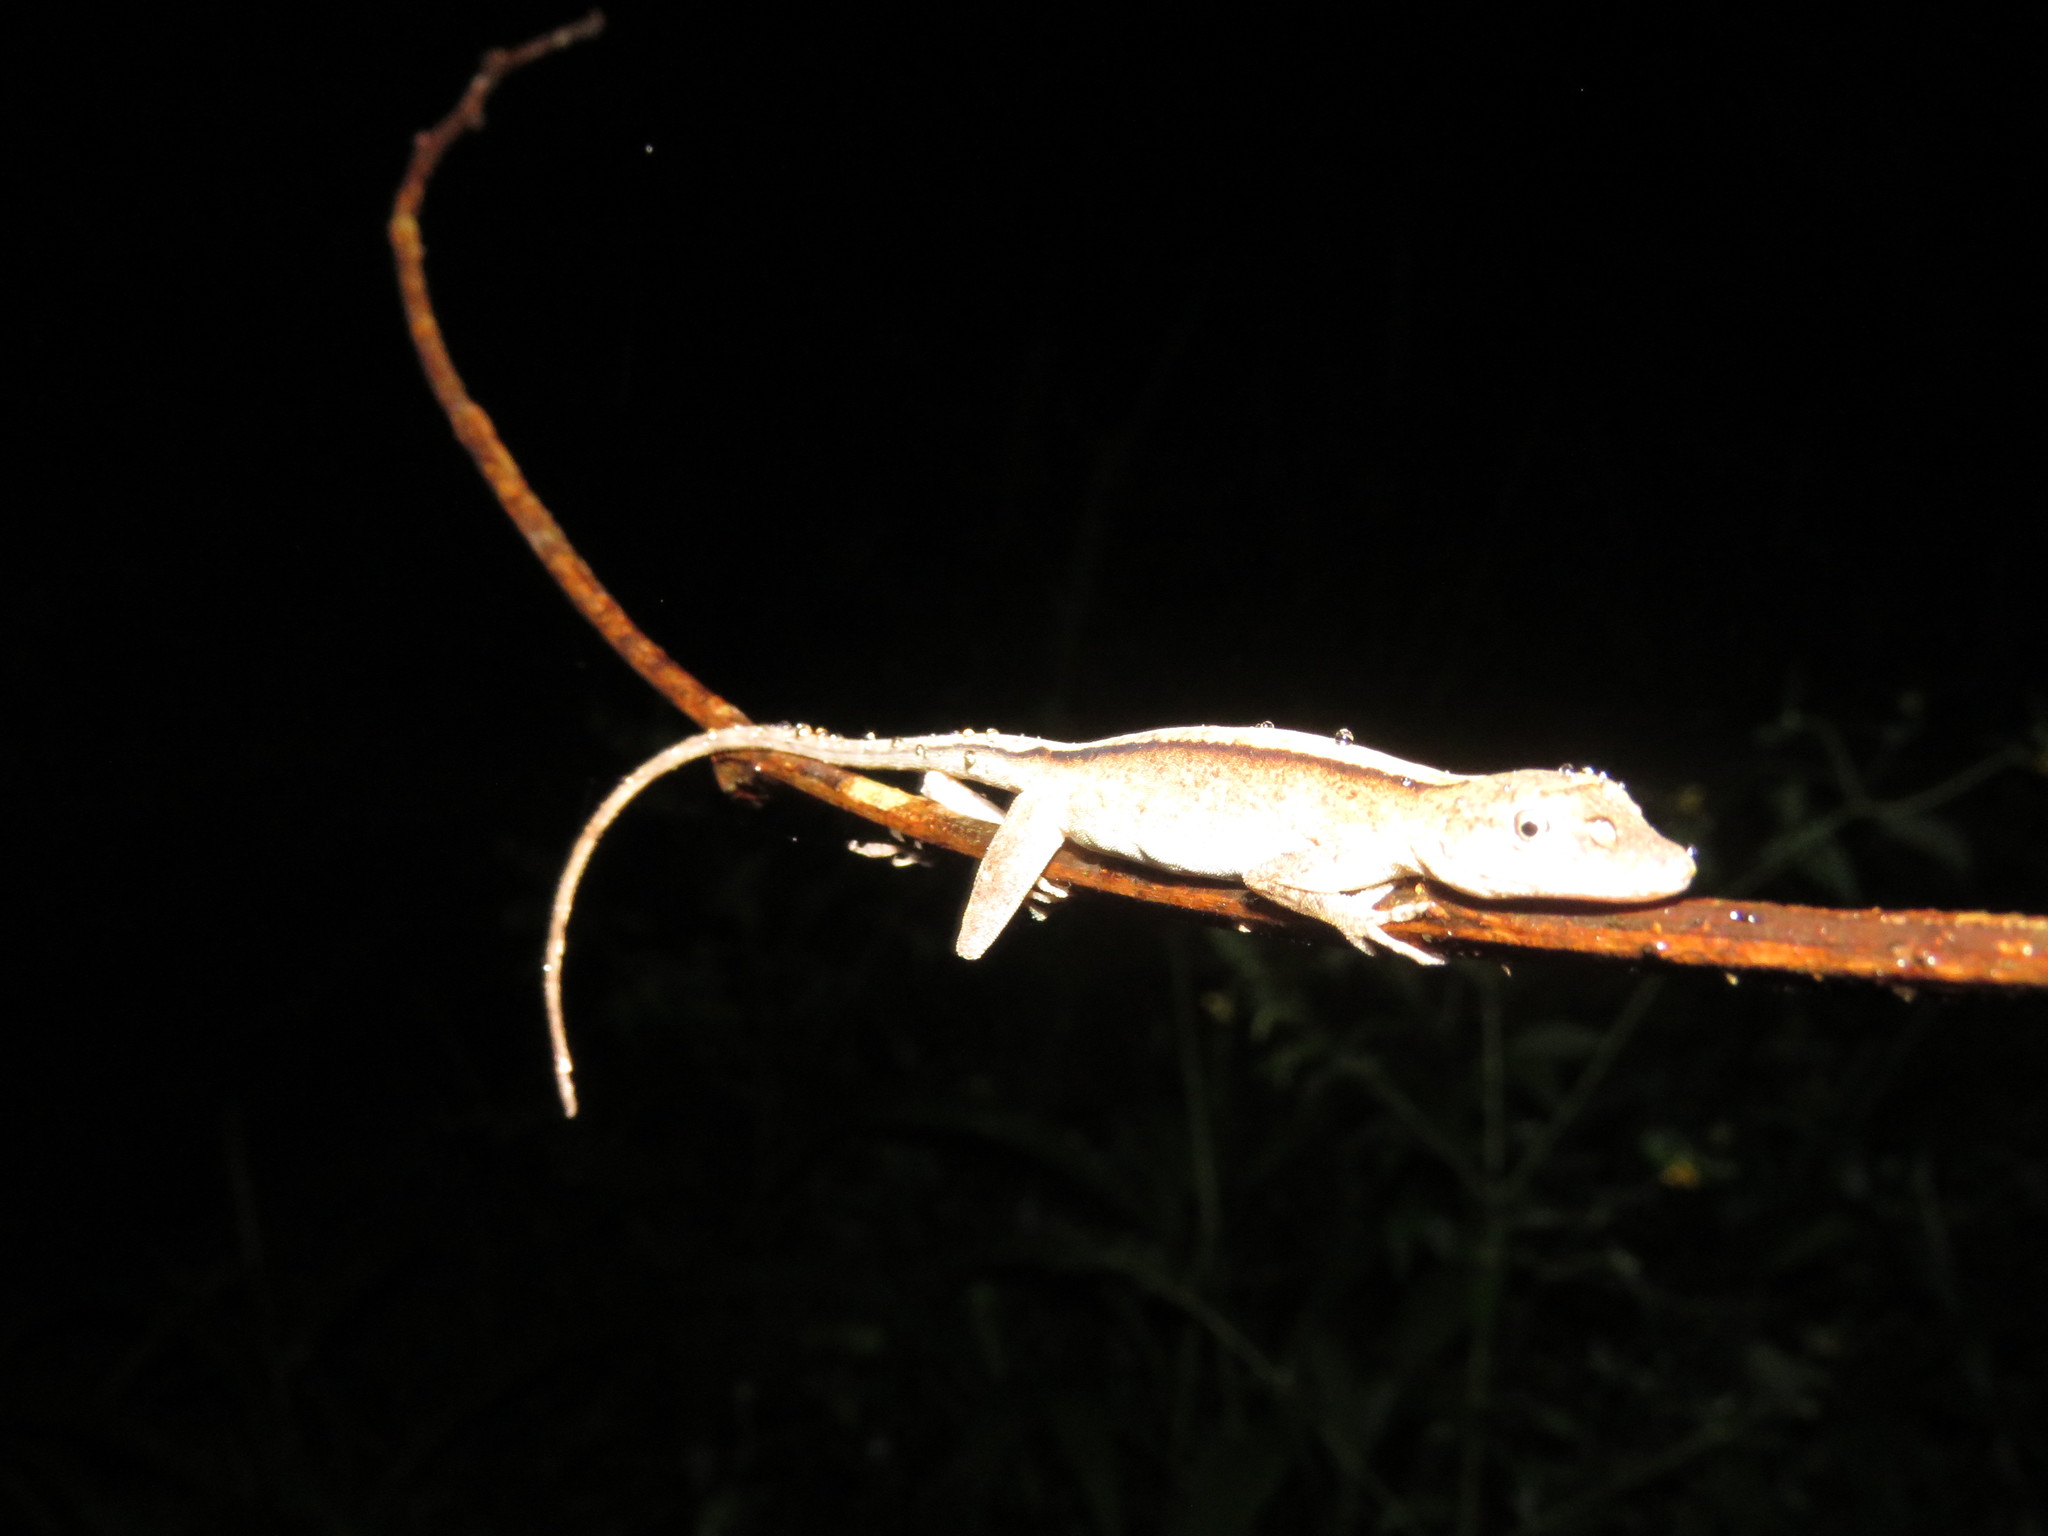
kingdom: Animalia
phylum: Chordata
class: Squamata
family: Dactyloidae
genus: Anolis
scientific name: Anolis fuscoauratus
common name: Brown-eared anole
